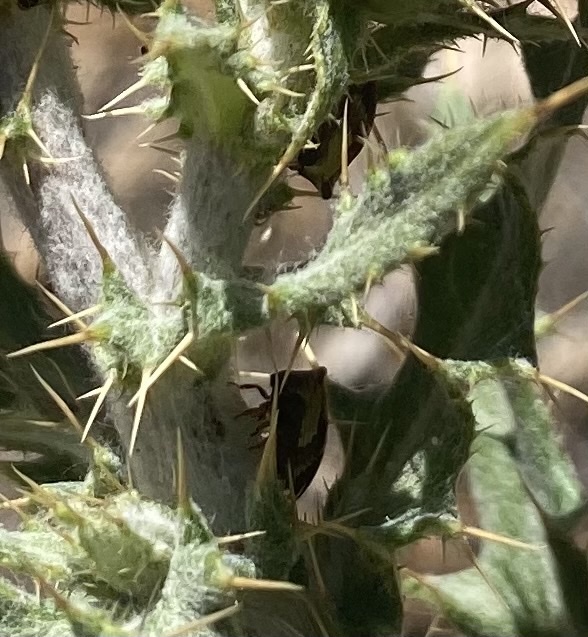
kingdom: Animalia
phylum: Arthropoda
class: Insecta
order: Hemiptera
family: Membracidae
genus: Publilia
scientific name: Publilia porrecta
